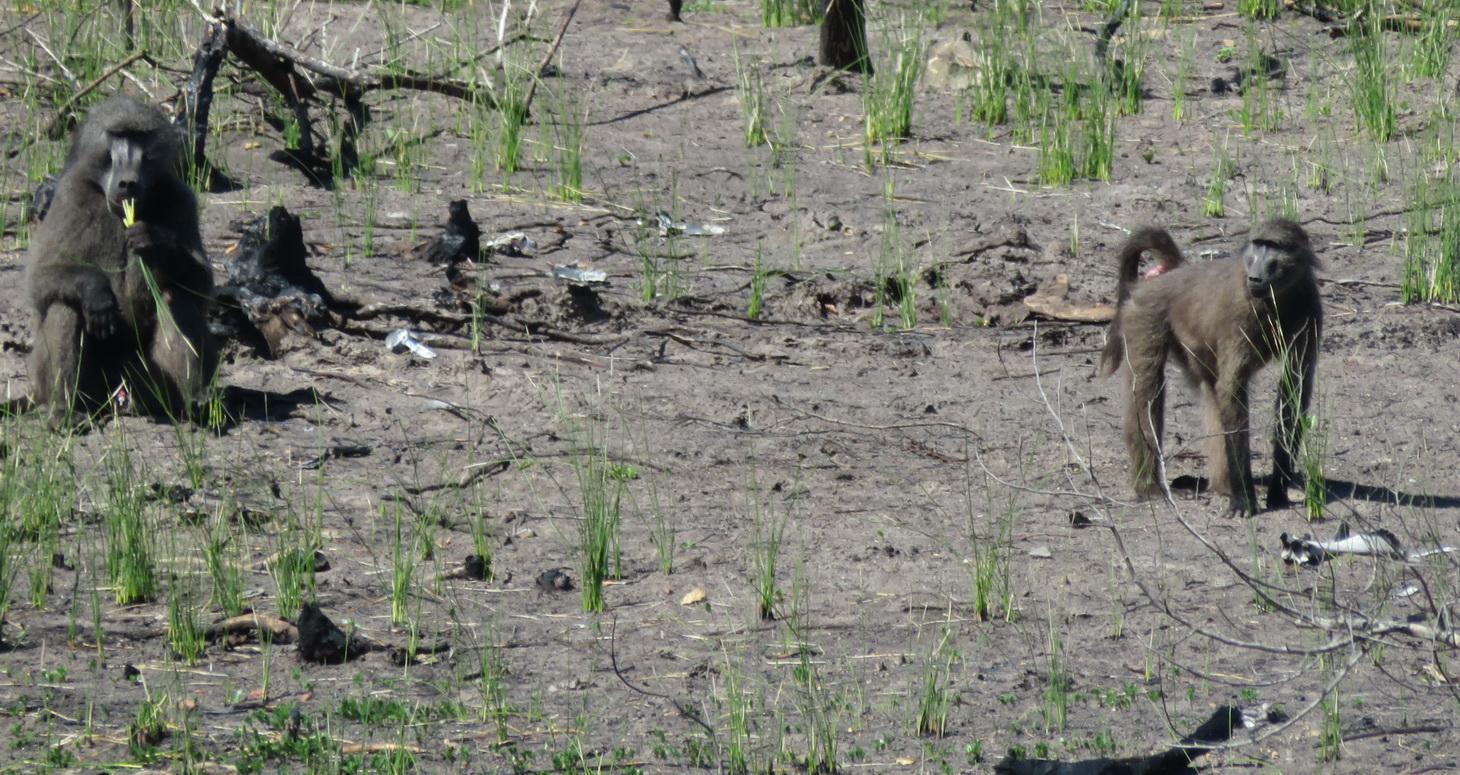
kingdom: Animalia
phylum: Chordata
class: Mammalia
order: Primates
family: Cercopithecidae
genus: Papio
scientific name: Papio ursinus
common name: Chacma baboon
